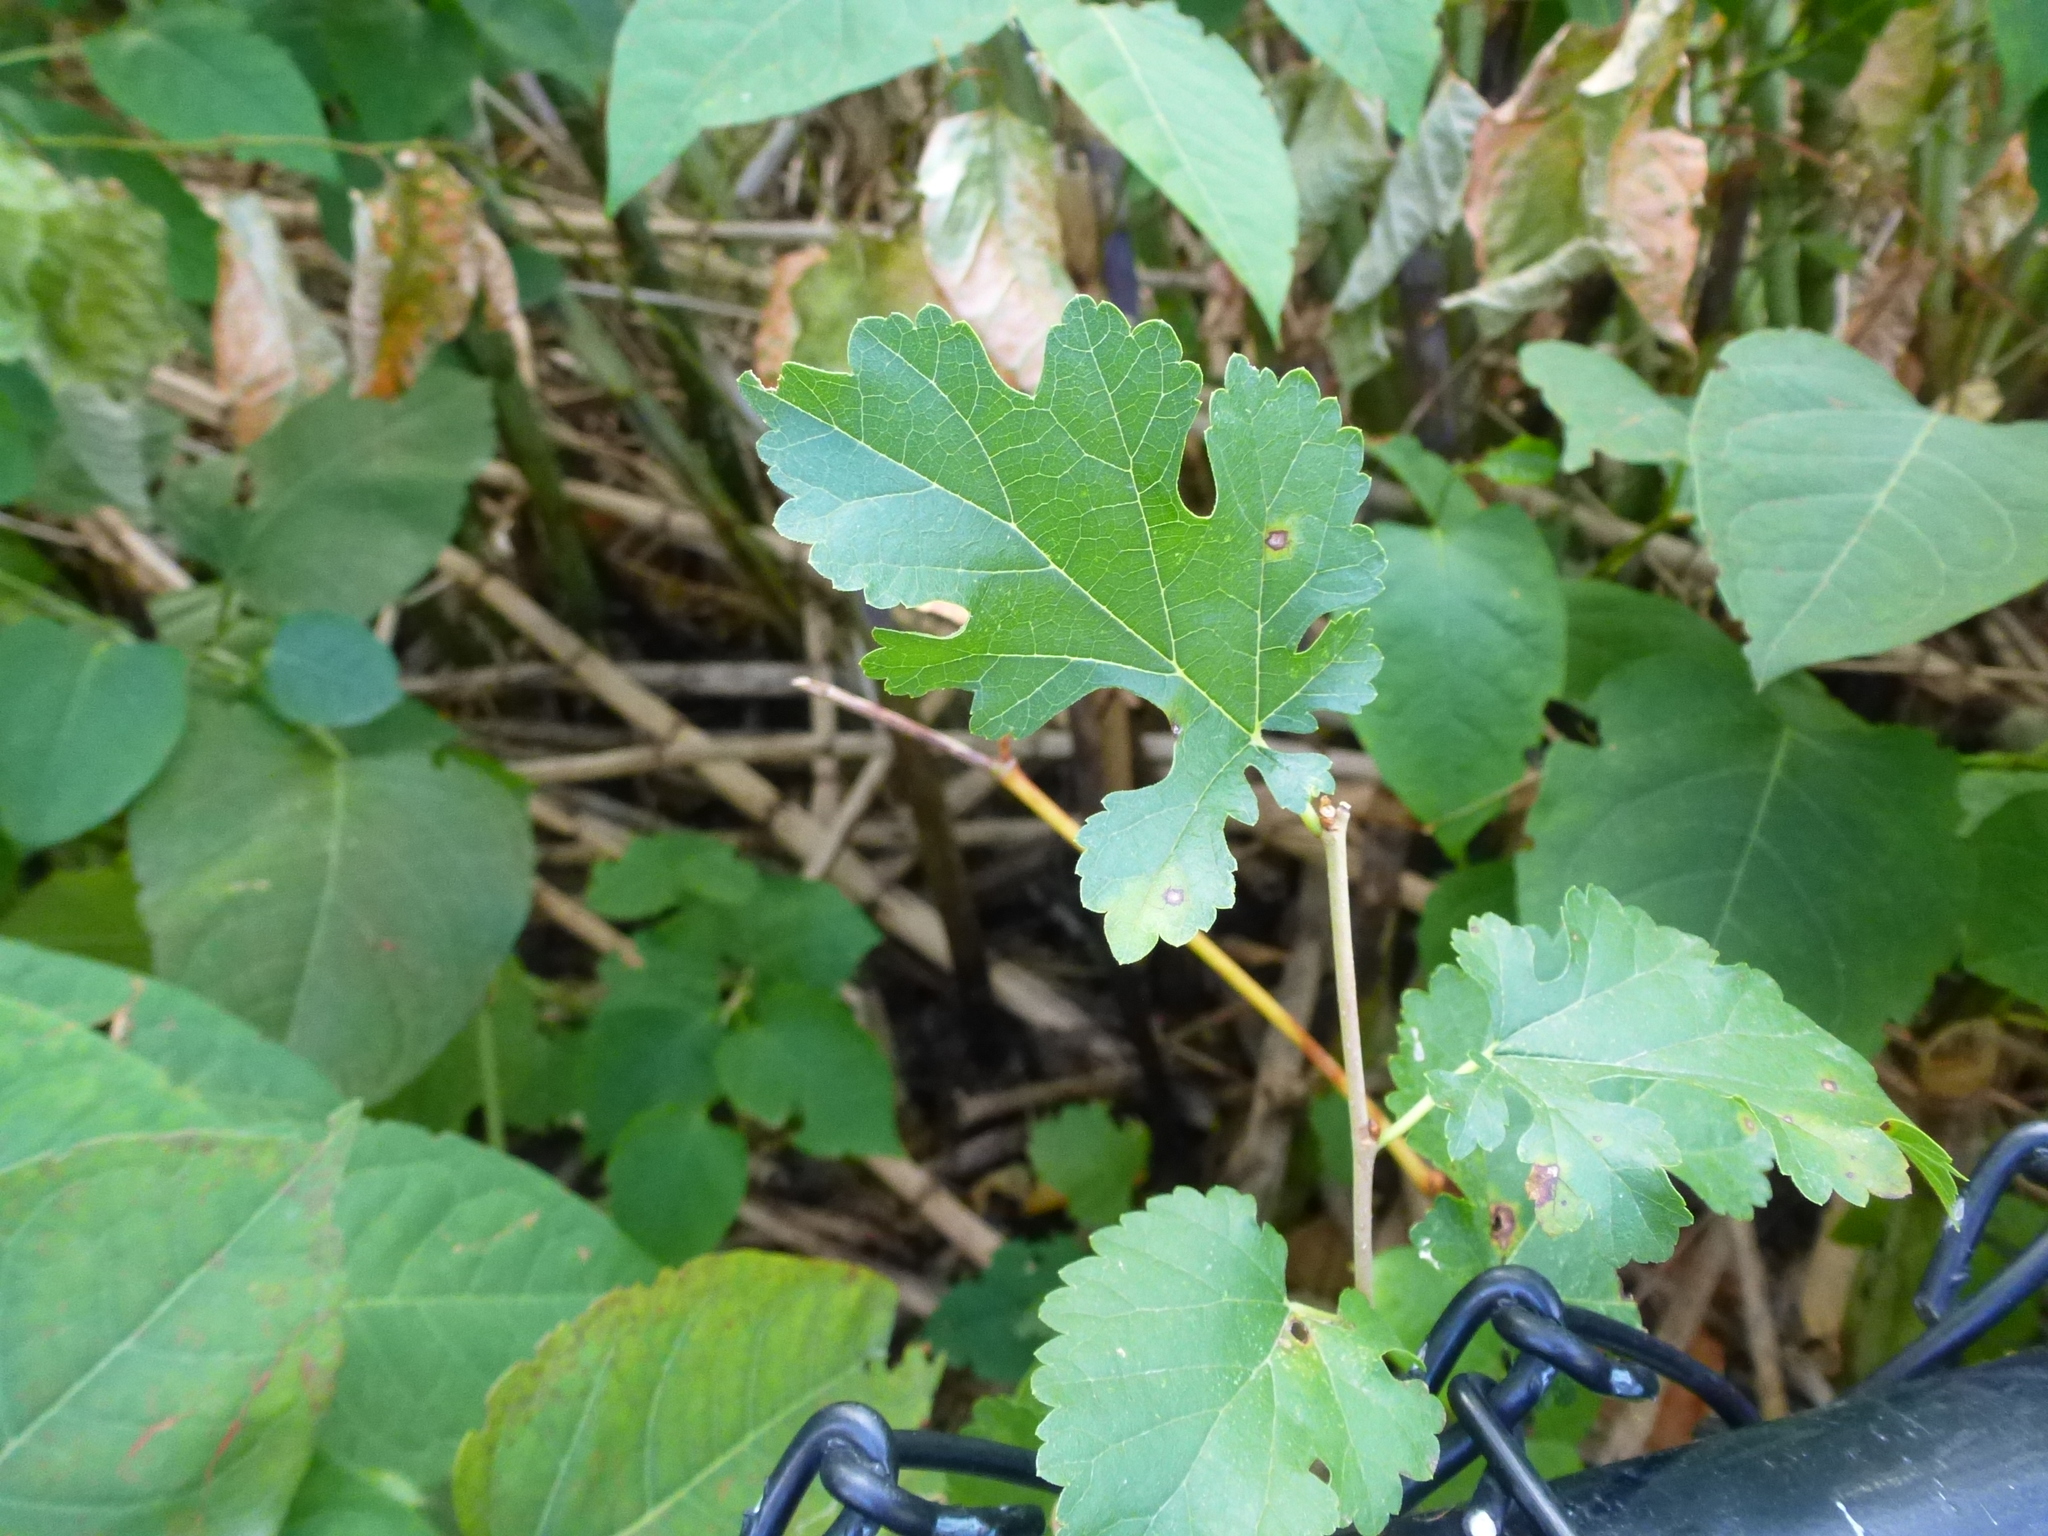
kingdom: Plantae
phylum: Tracheophyta
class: Magnoliopsida
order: Rosales
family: Moraceae
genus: Morus
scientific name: Morus alba
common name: White mulberry
